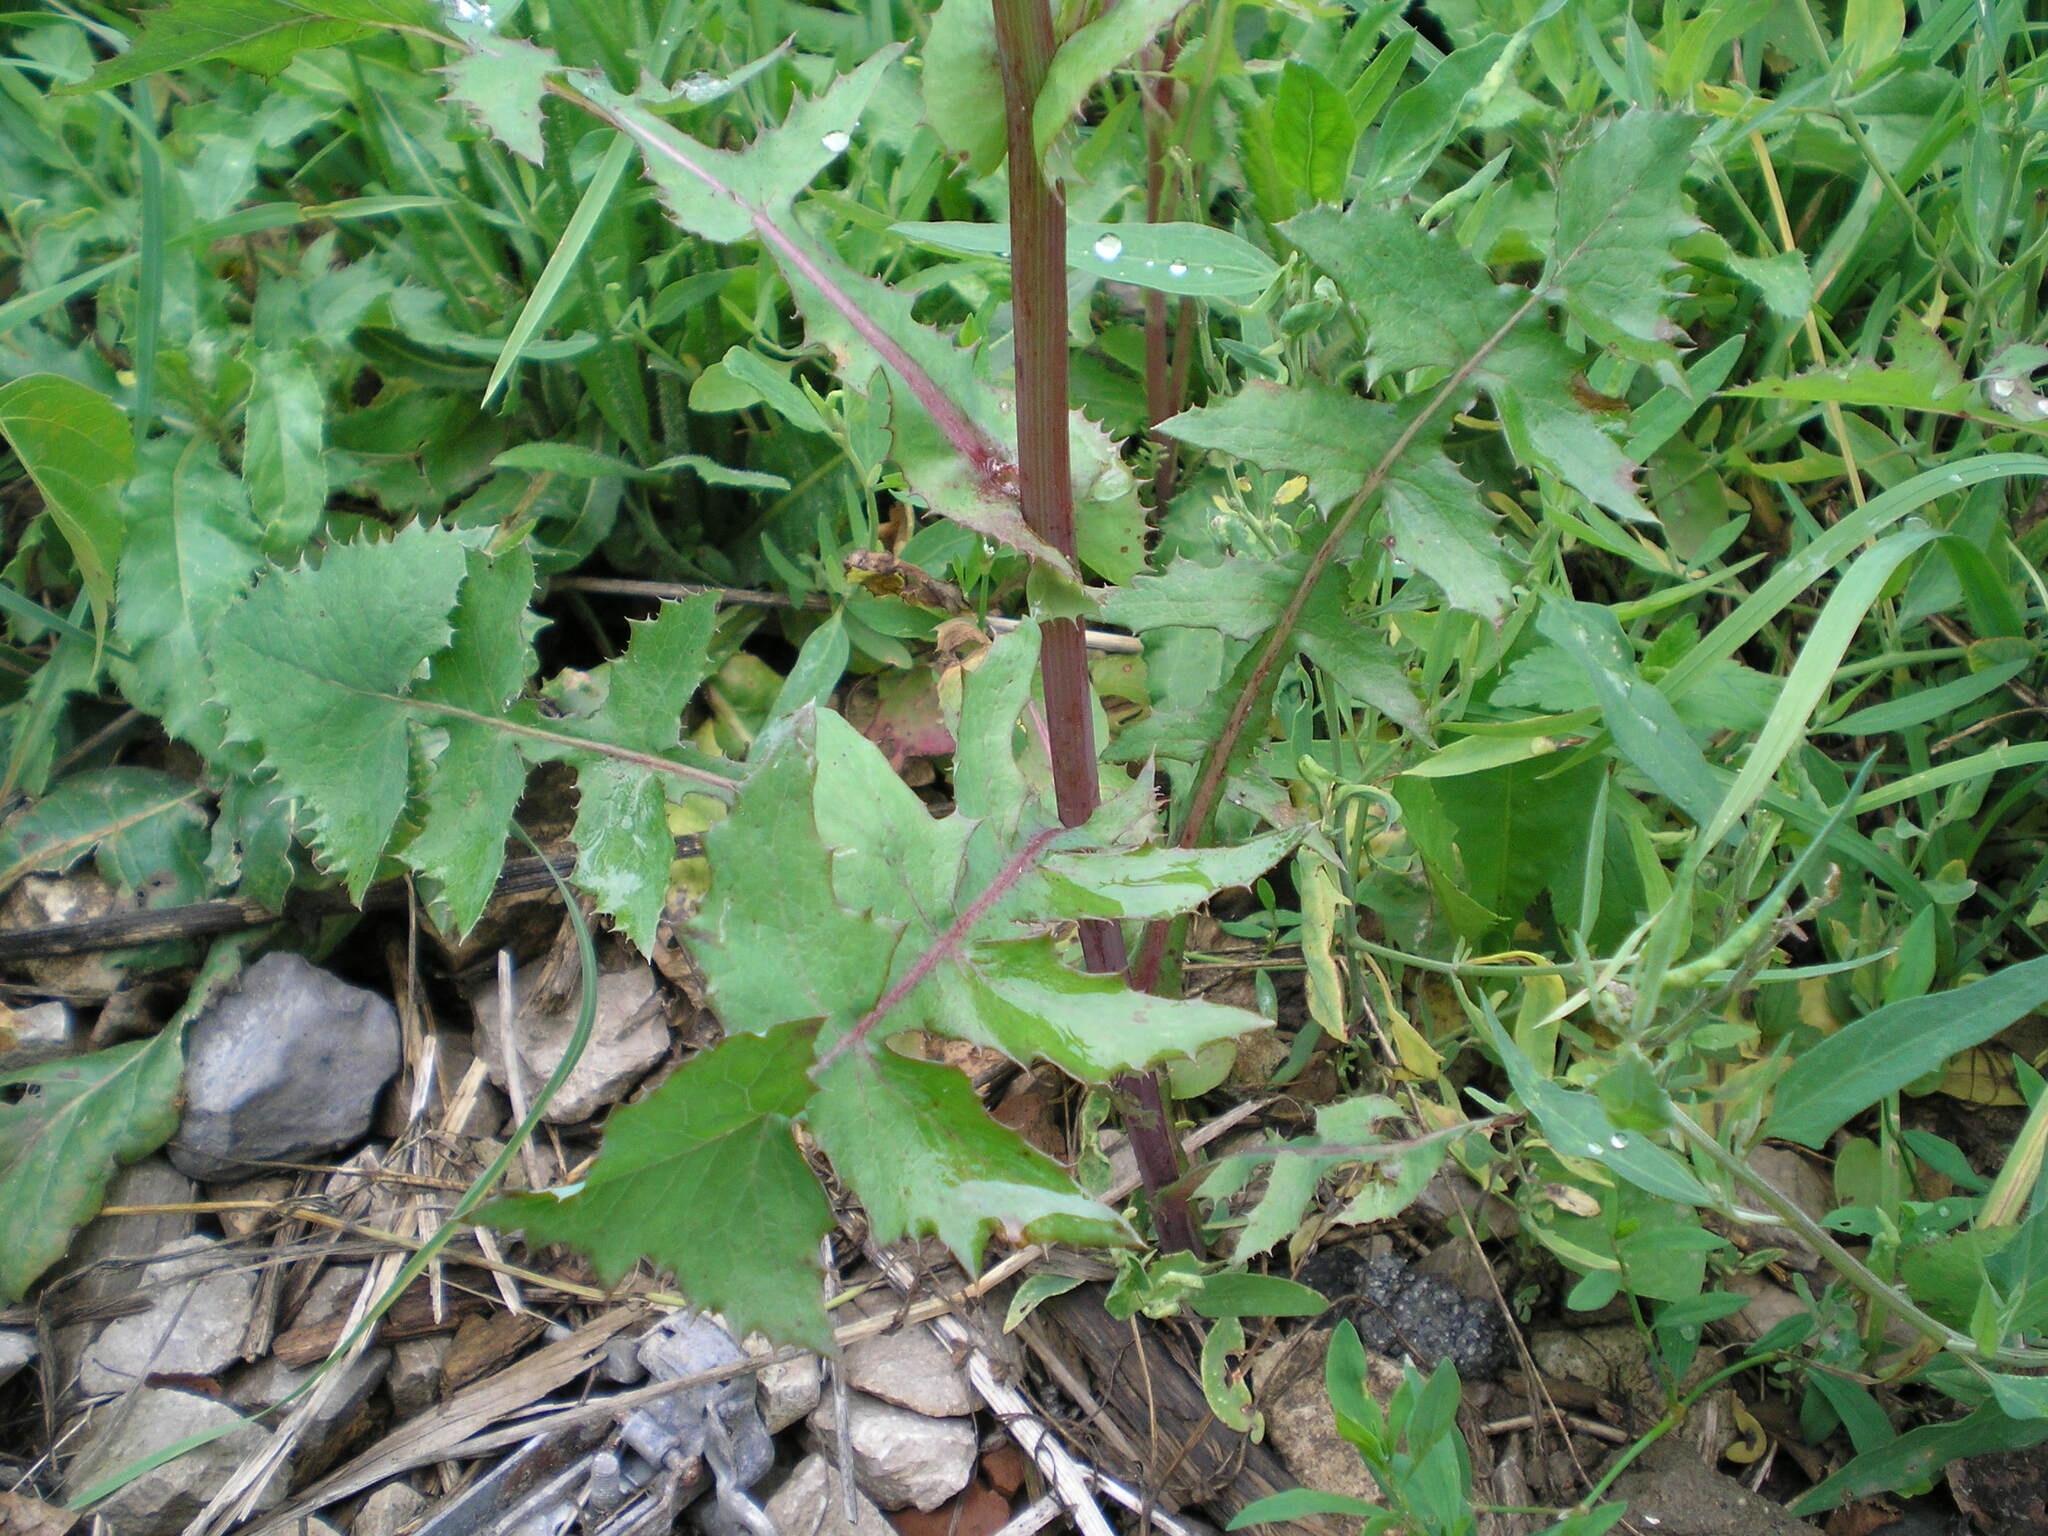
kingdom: Plantae
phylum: Tracheophyta
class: Magnoliopsida
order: Asterales
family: Asteraceae
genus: Sonchus
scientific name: Sonchus oleraceus
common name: Common sowthistle
